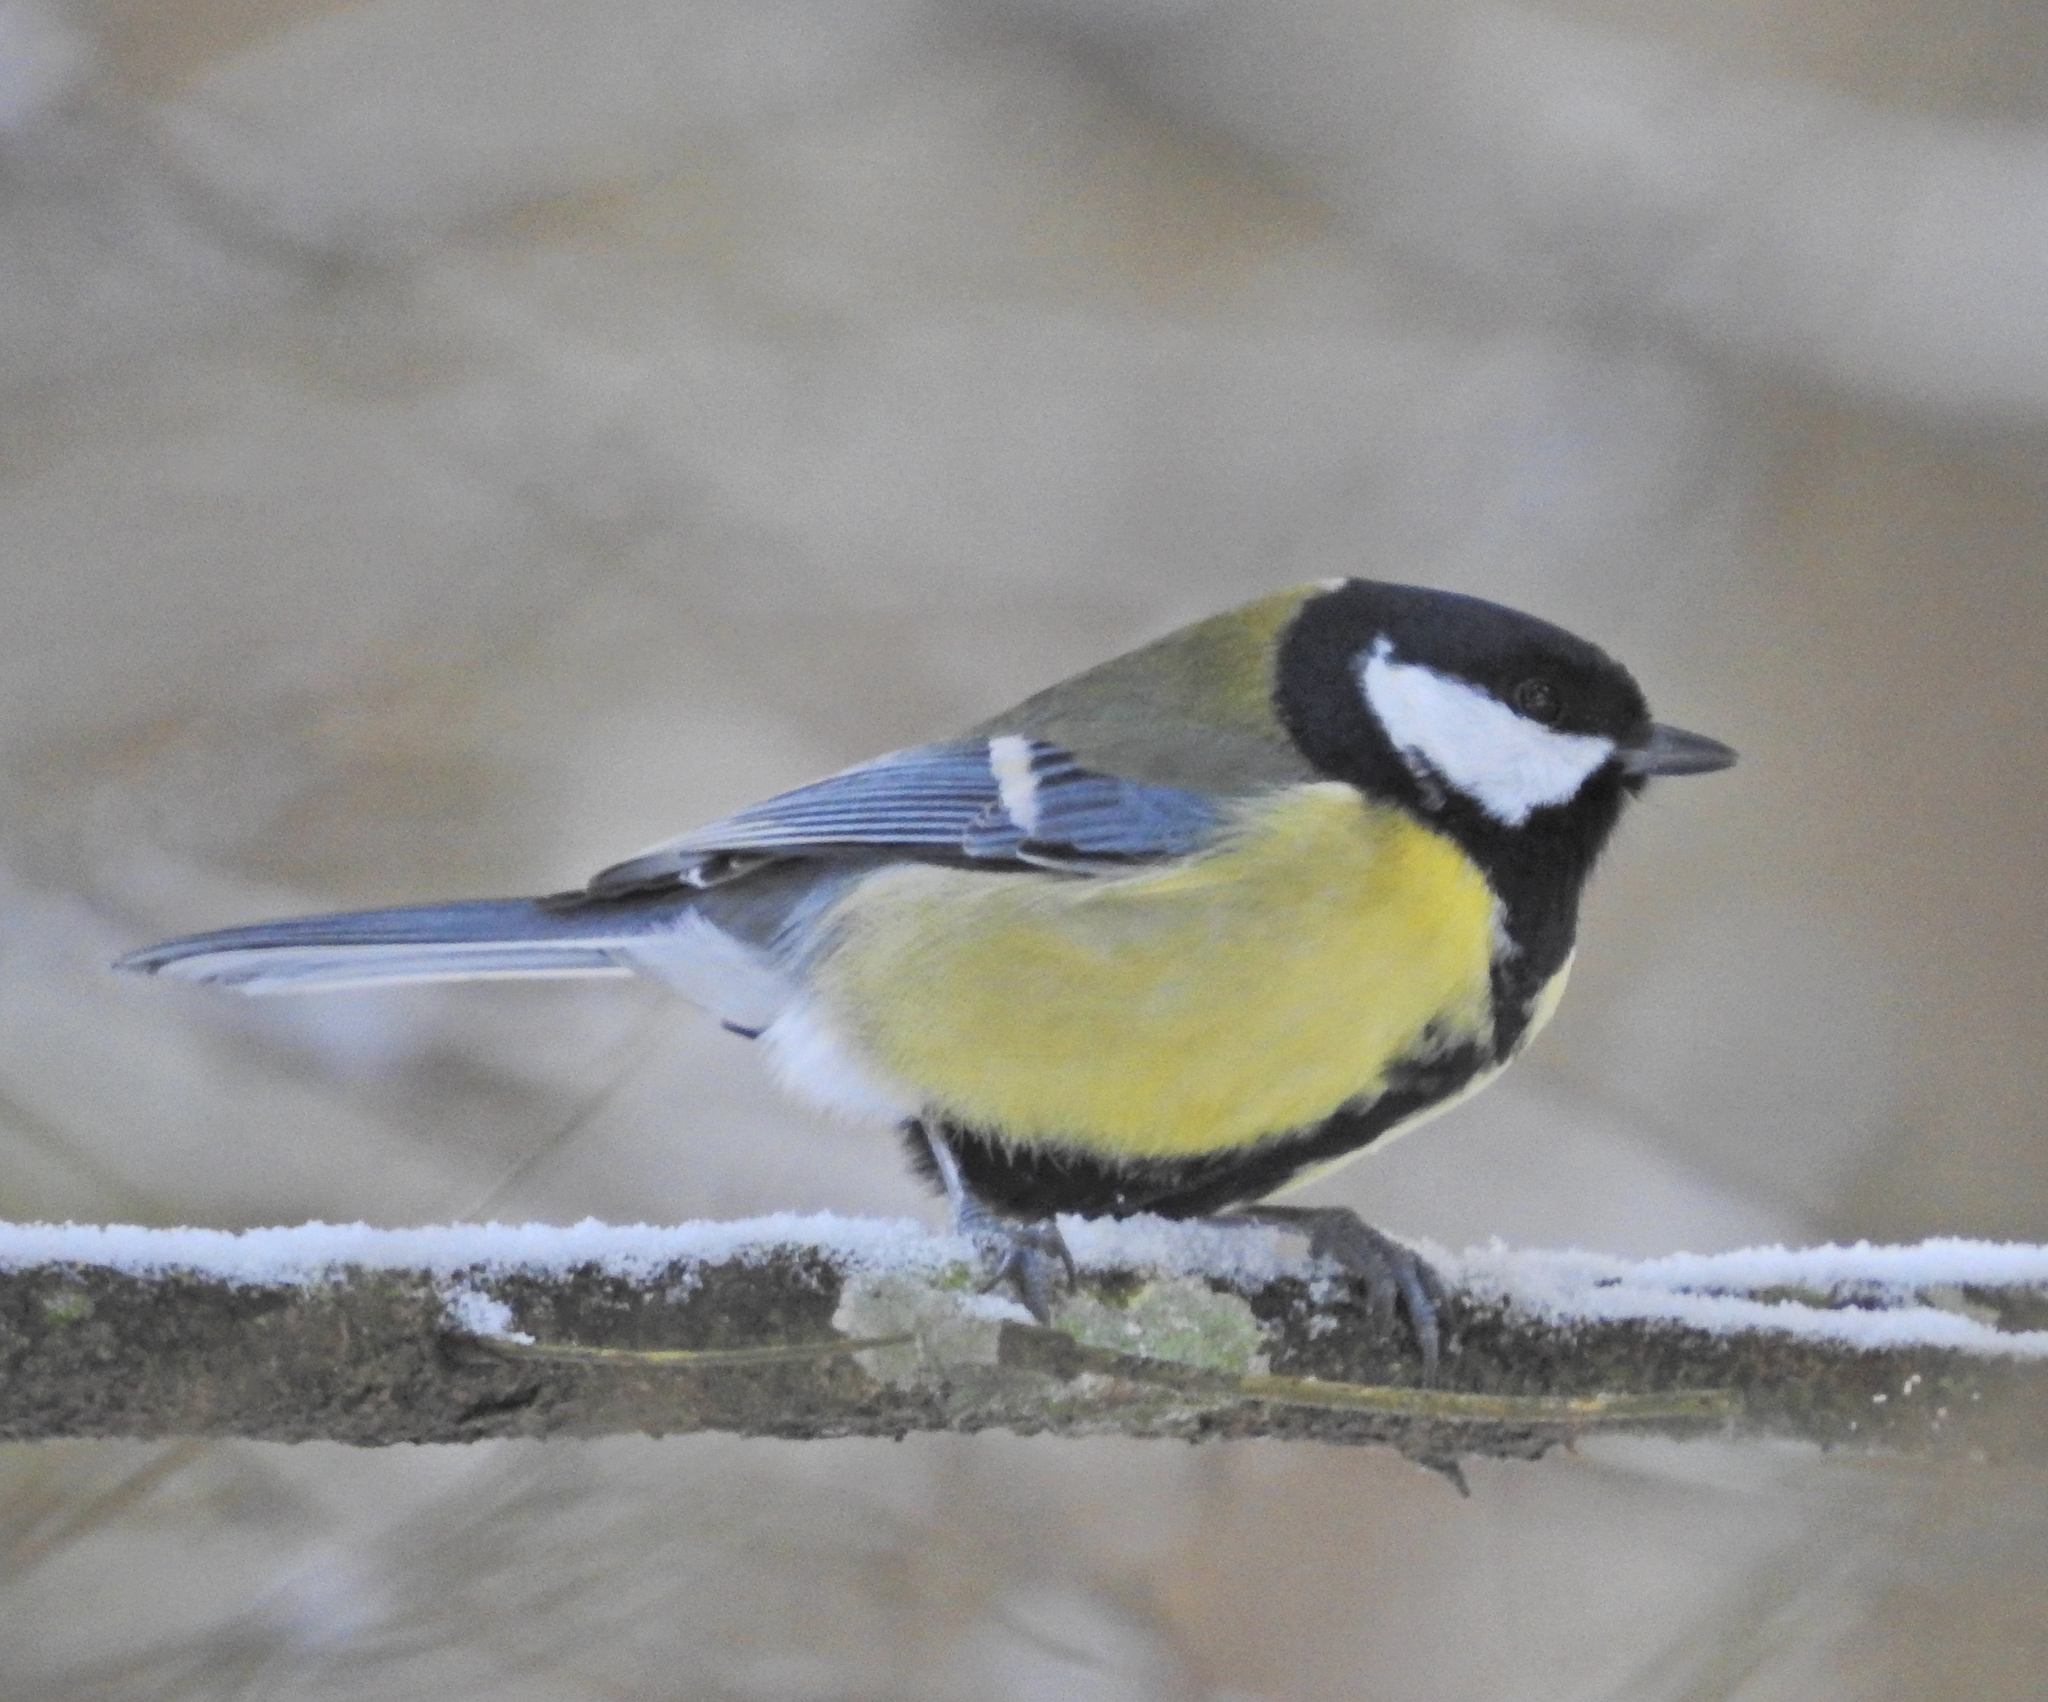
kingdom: Animalia
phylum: Chordata
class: Aves
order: Passeriformes
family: Paridae
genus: Parus
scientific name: Parus major
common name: Great tit
